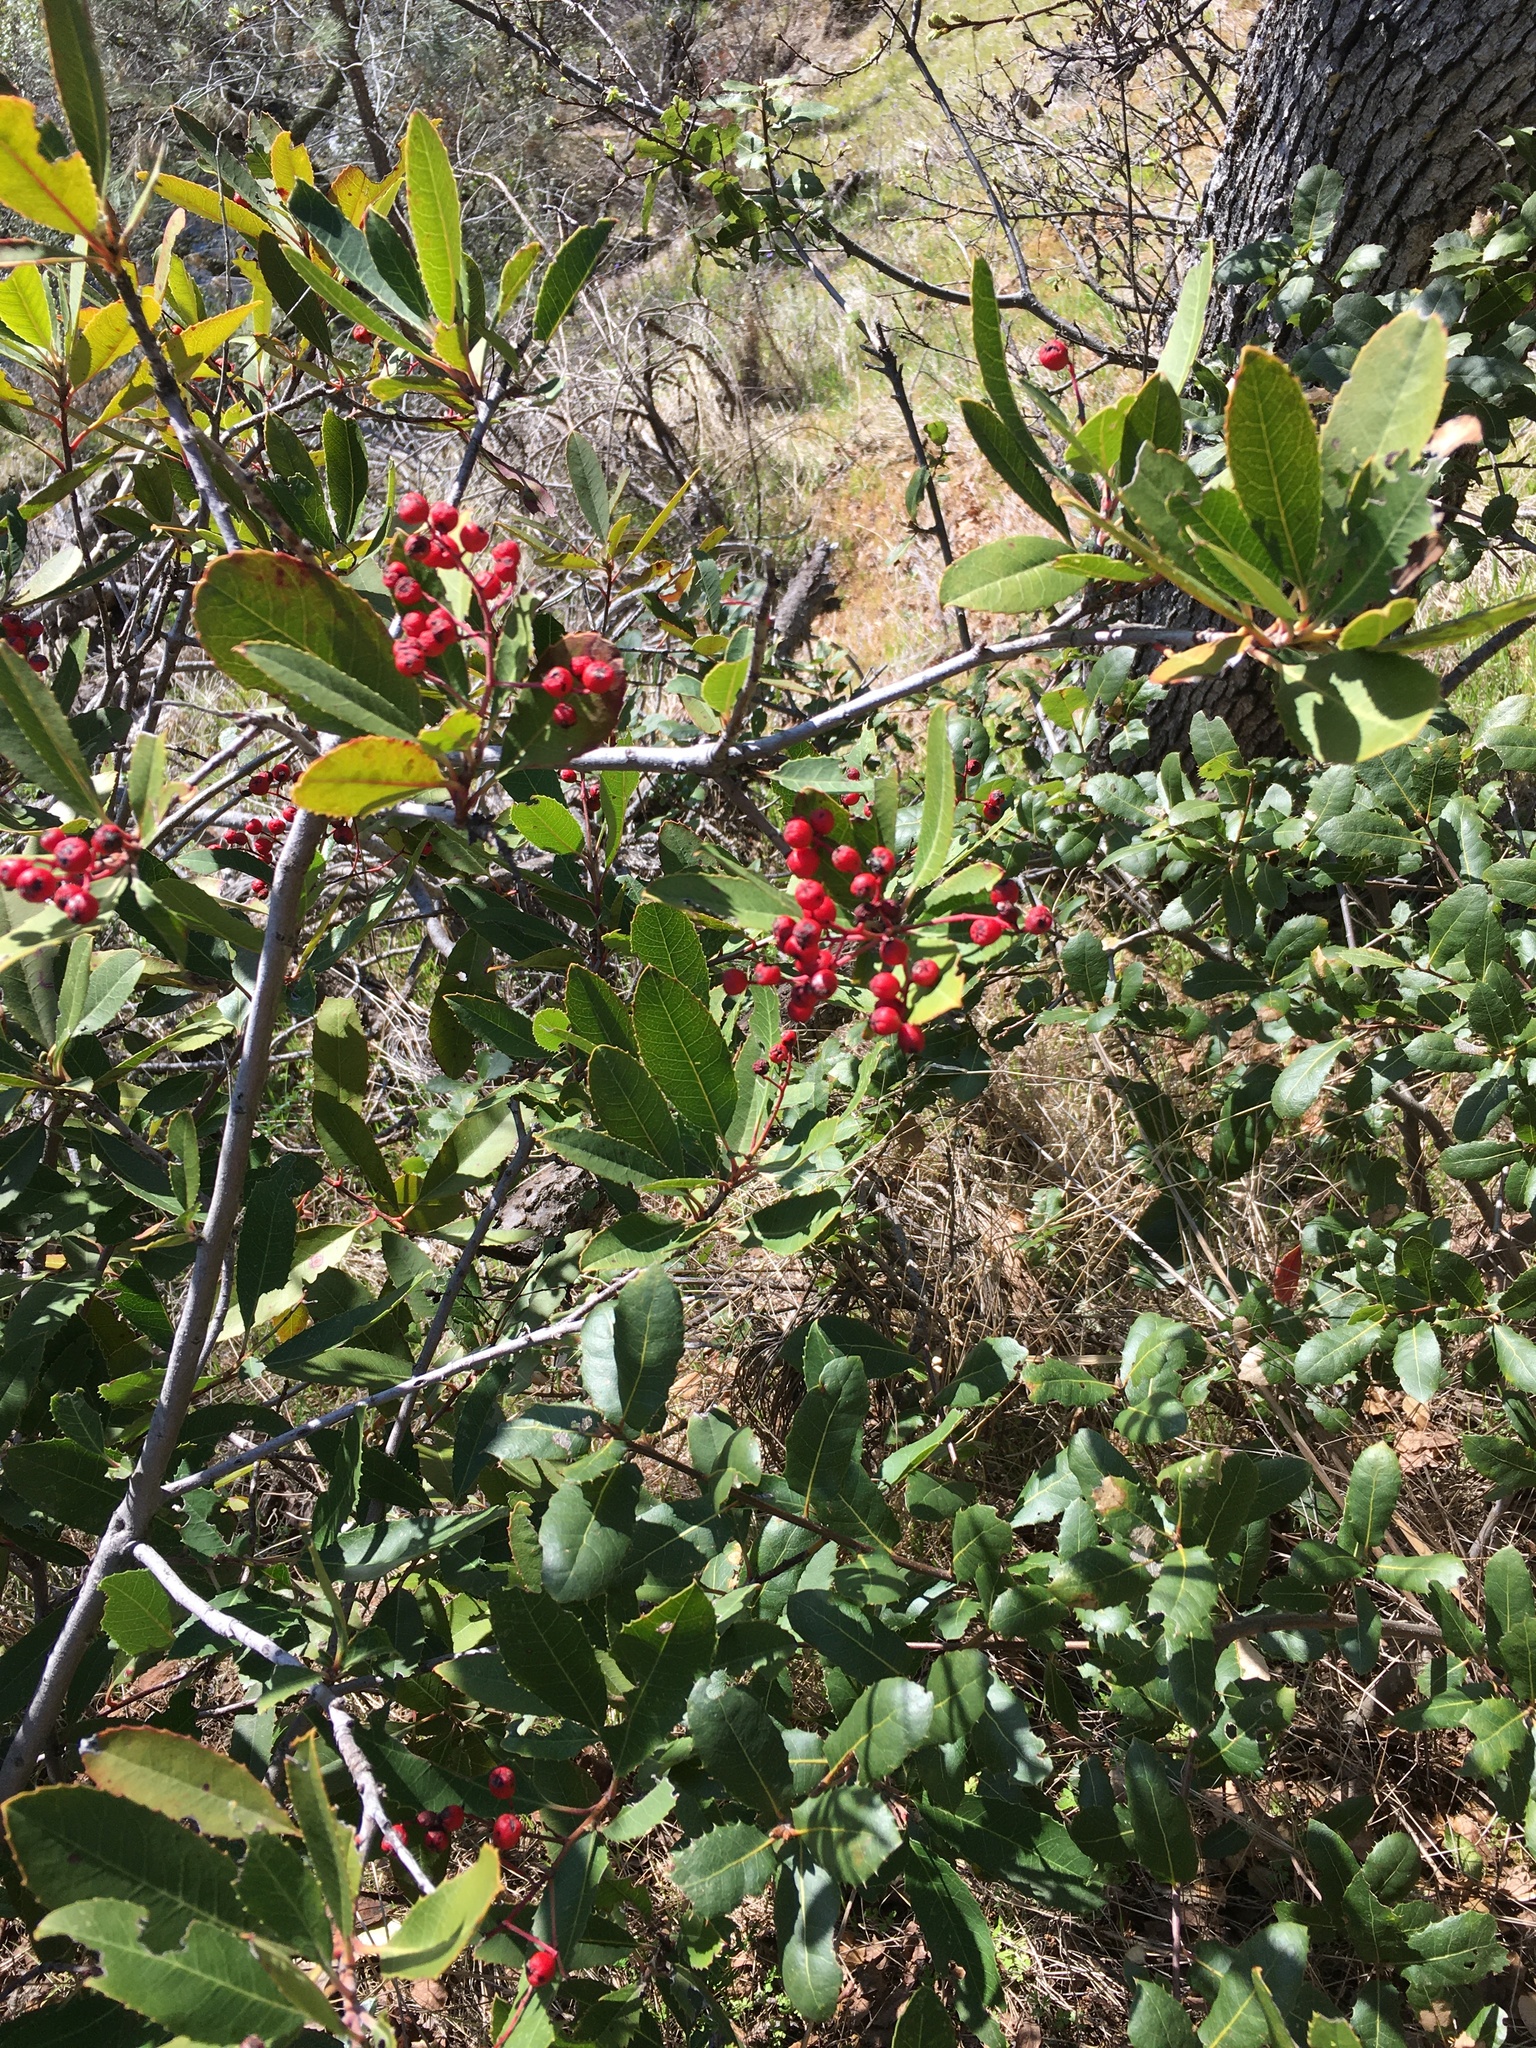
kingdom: Plantae
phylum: Tracheophyta
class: Magnoliopsida
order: Rosales
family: Rosaceae
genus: Heteromeles
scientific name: Heteromeles arbutifolia
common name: California-holly
